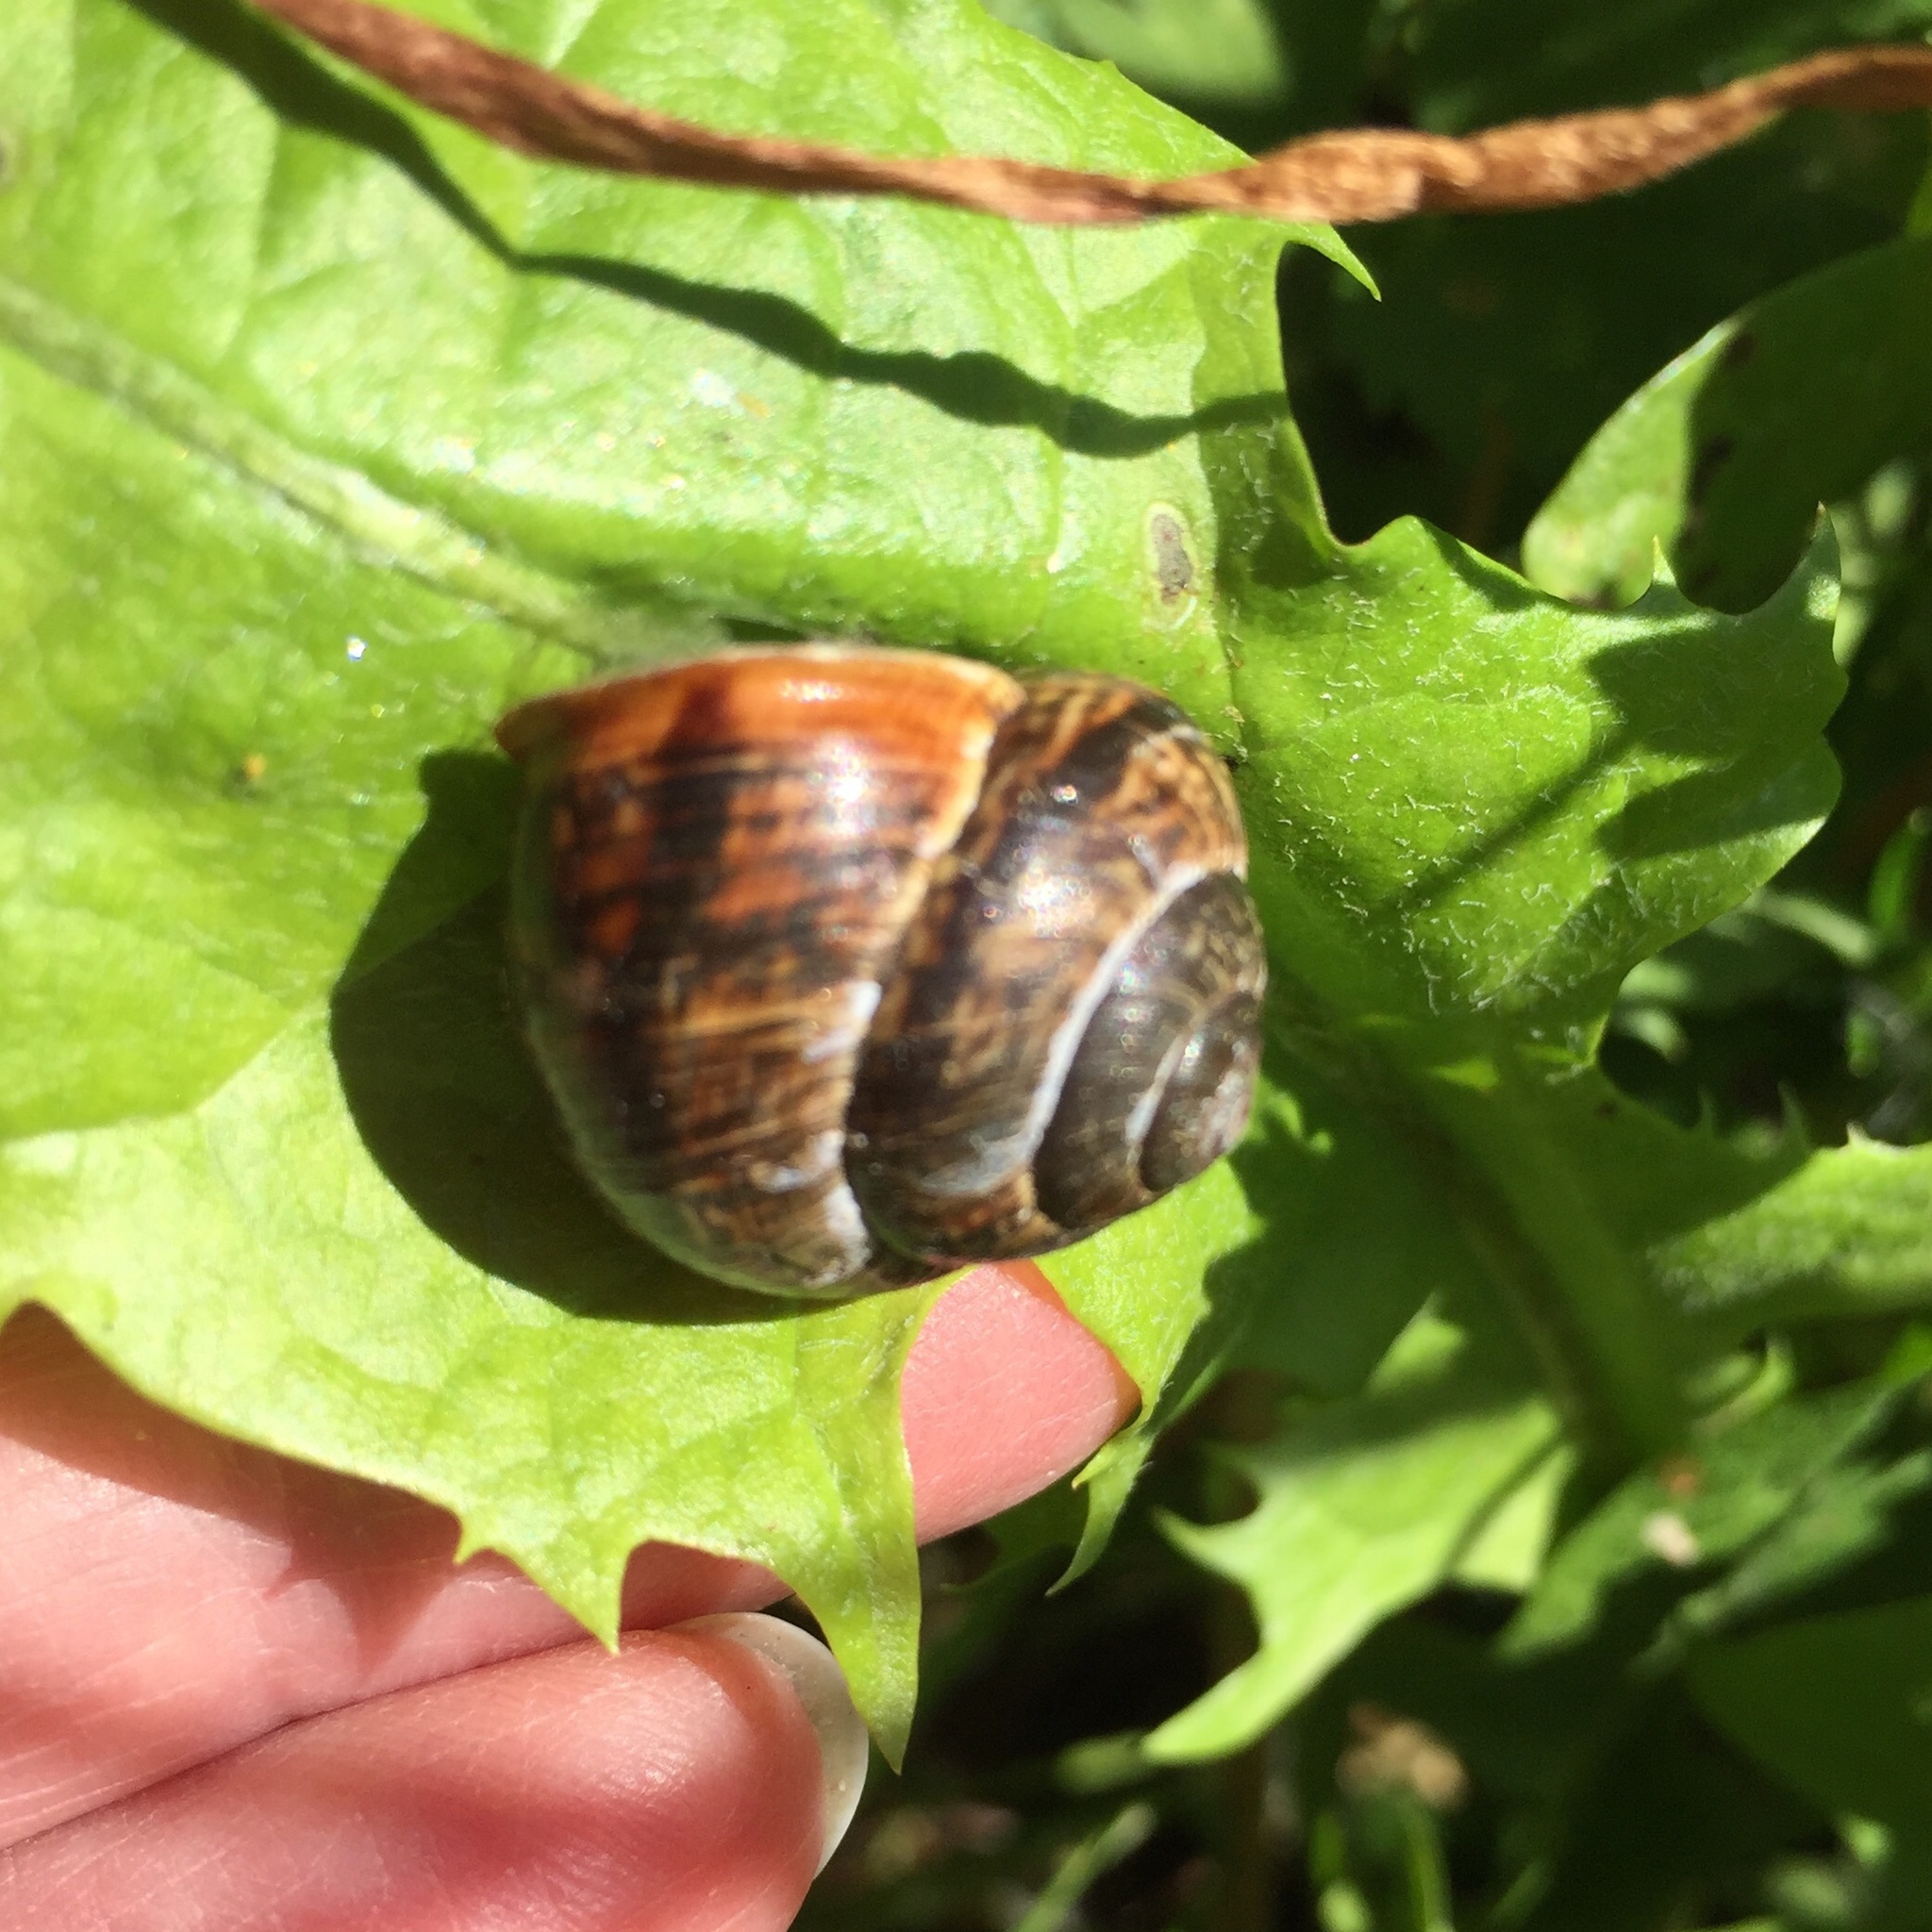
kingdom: Animalia
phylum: Mollusca
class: Gastropoda
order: Stylommatophora
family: Helicidae
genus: Arianta
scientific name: Arianta arbustorum
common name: Copse snail
